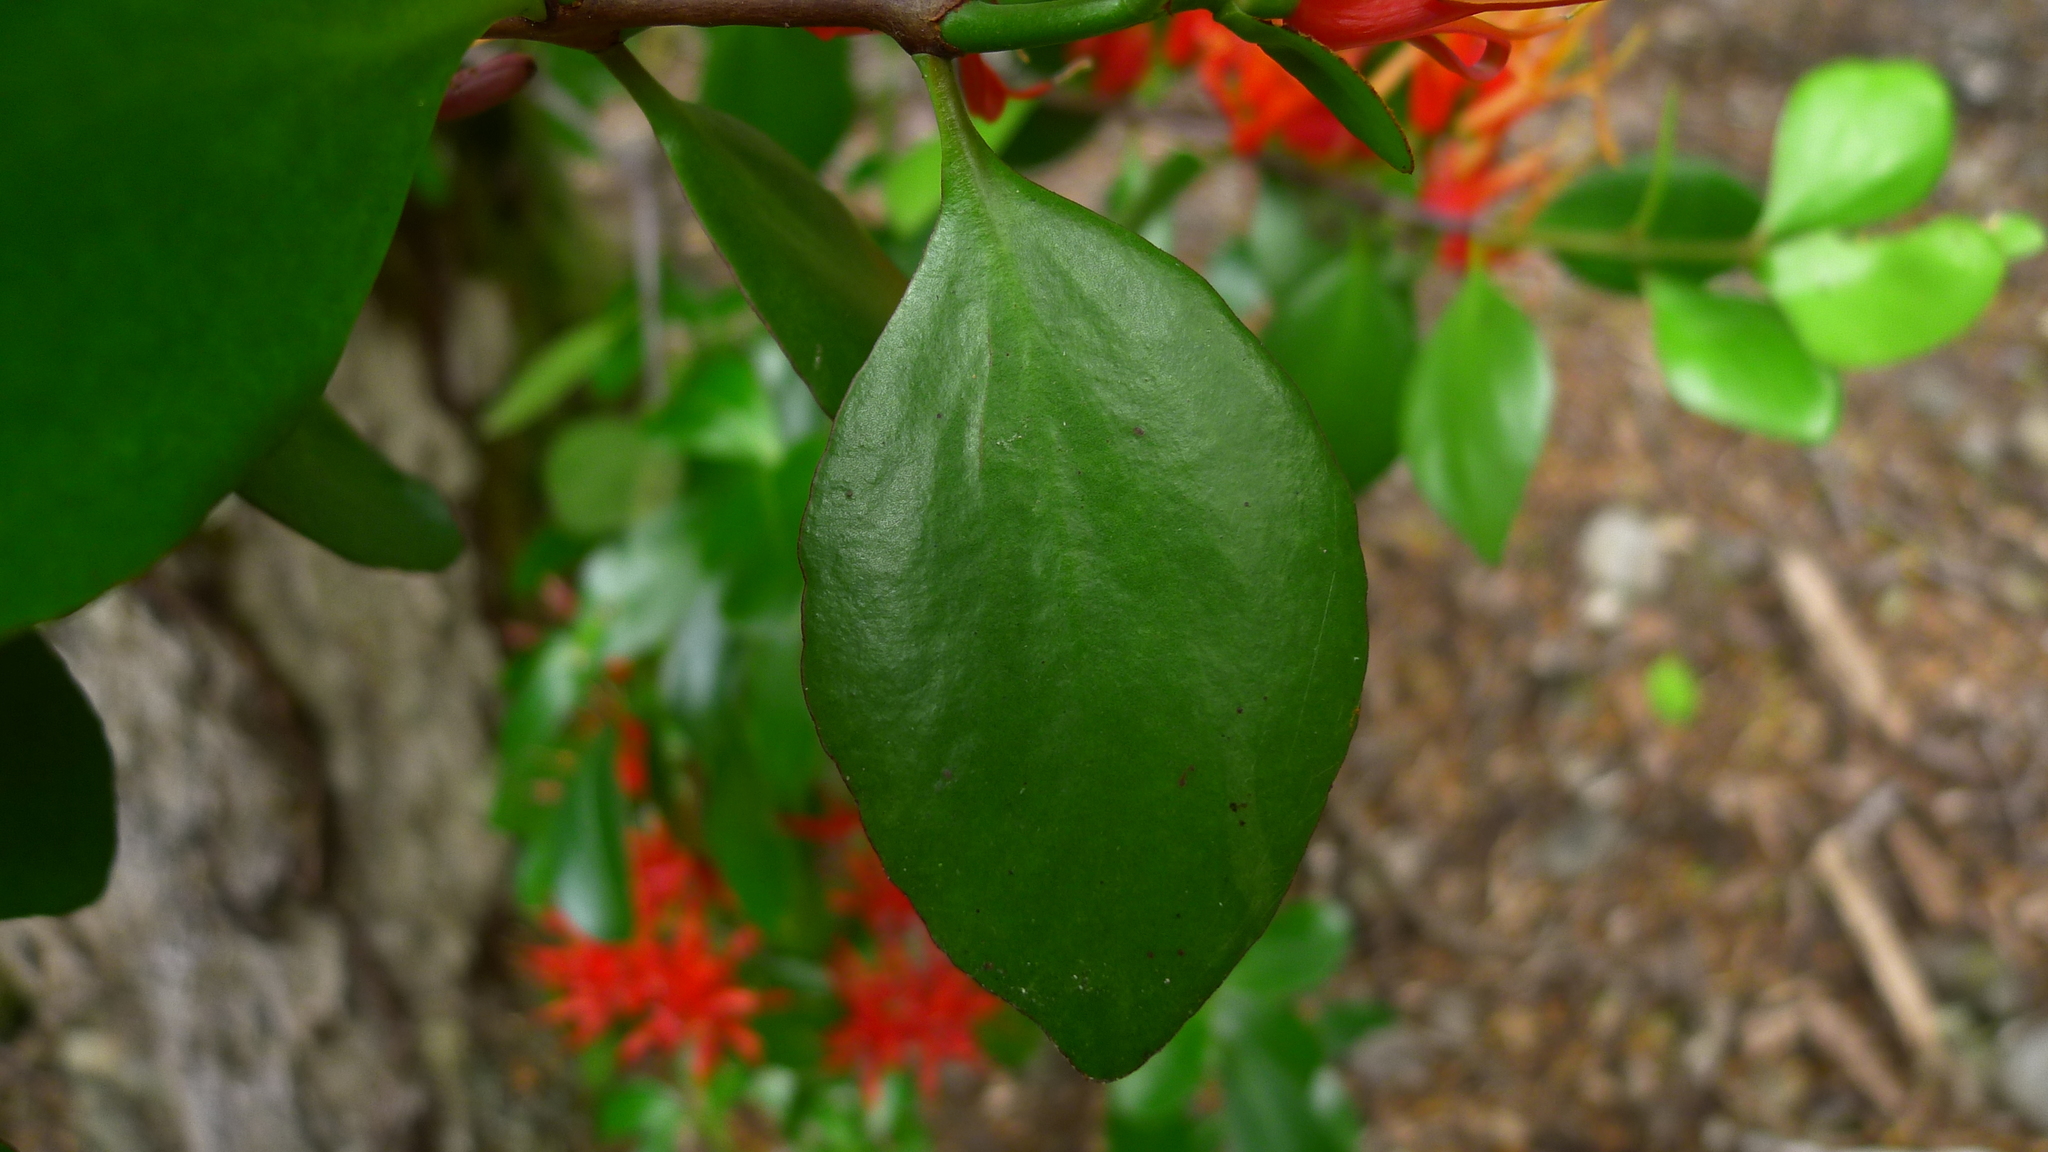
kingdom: Plantae
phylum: Tracheophyta
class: Magnoliopsida
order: Santalales
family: Loranthaceae
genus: Peraxilla
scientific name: Peraxilla colensoi
